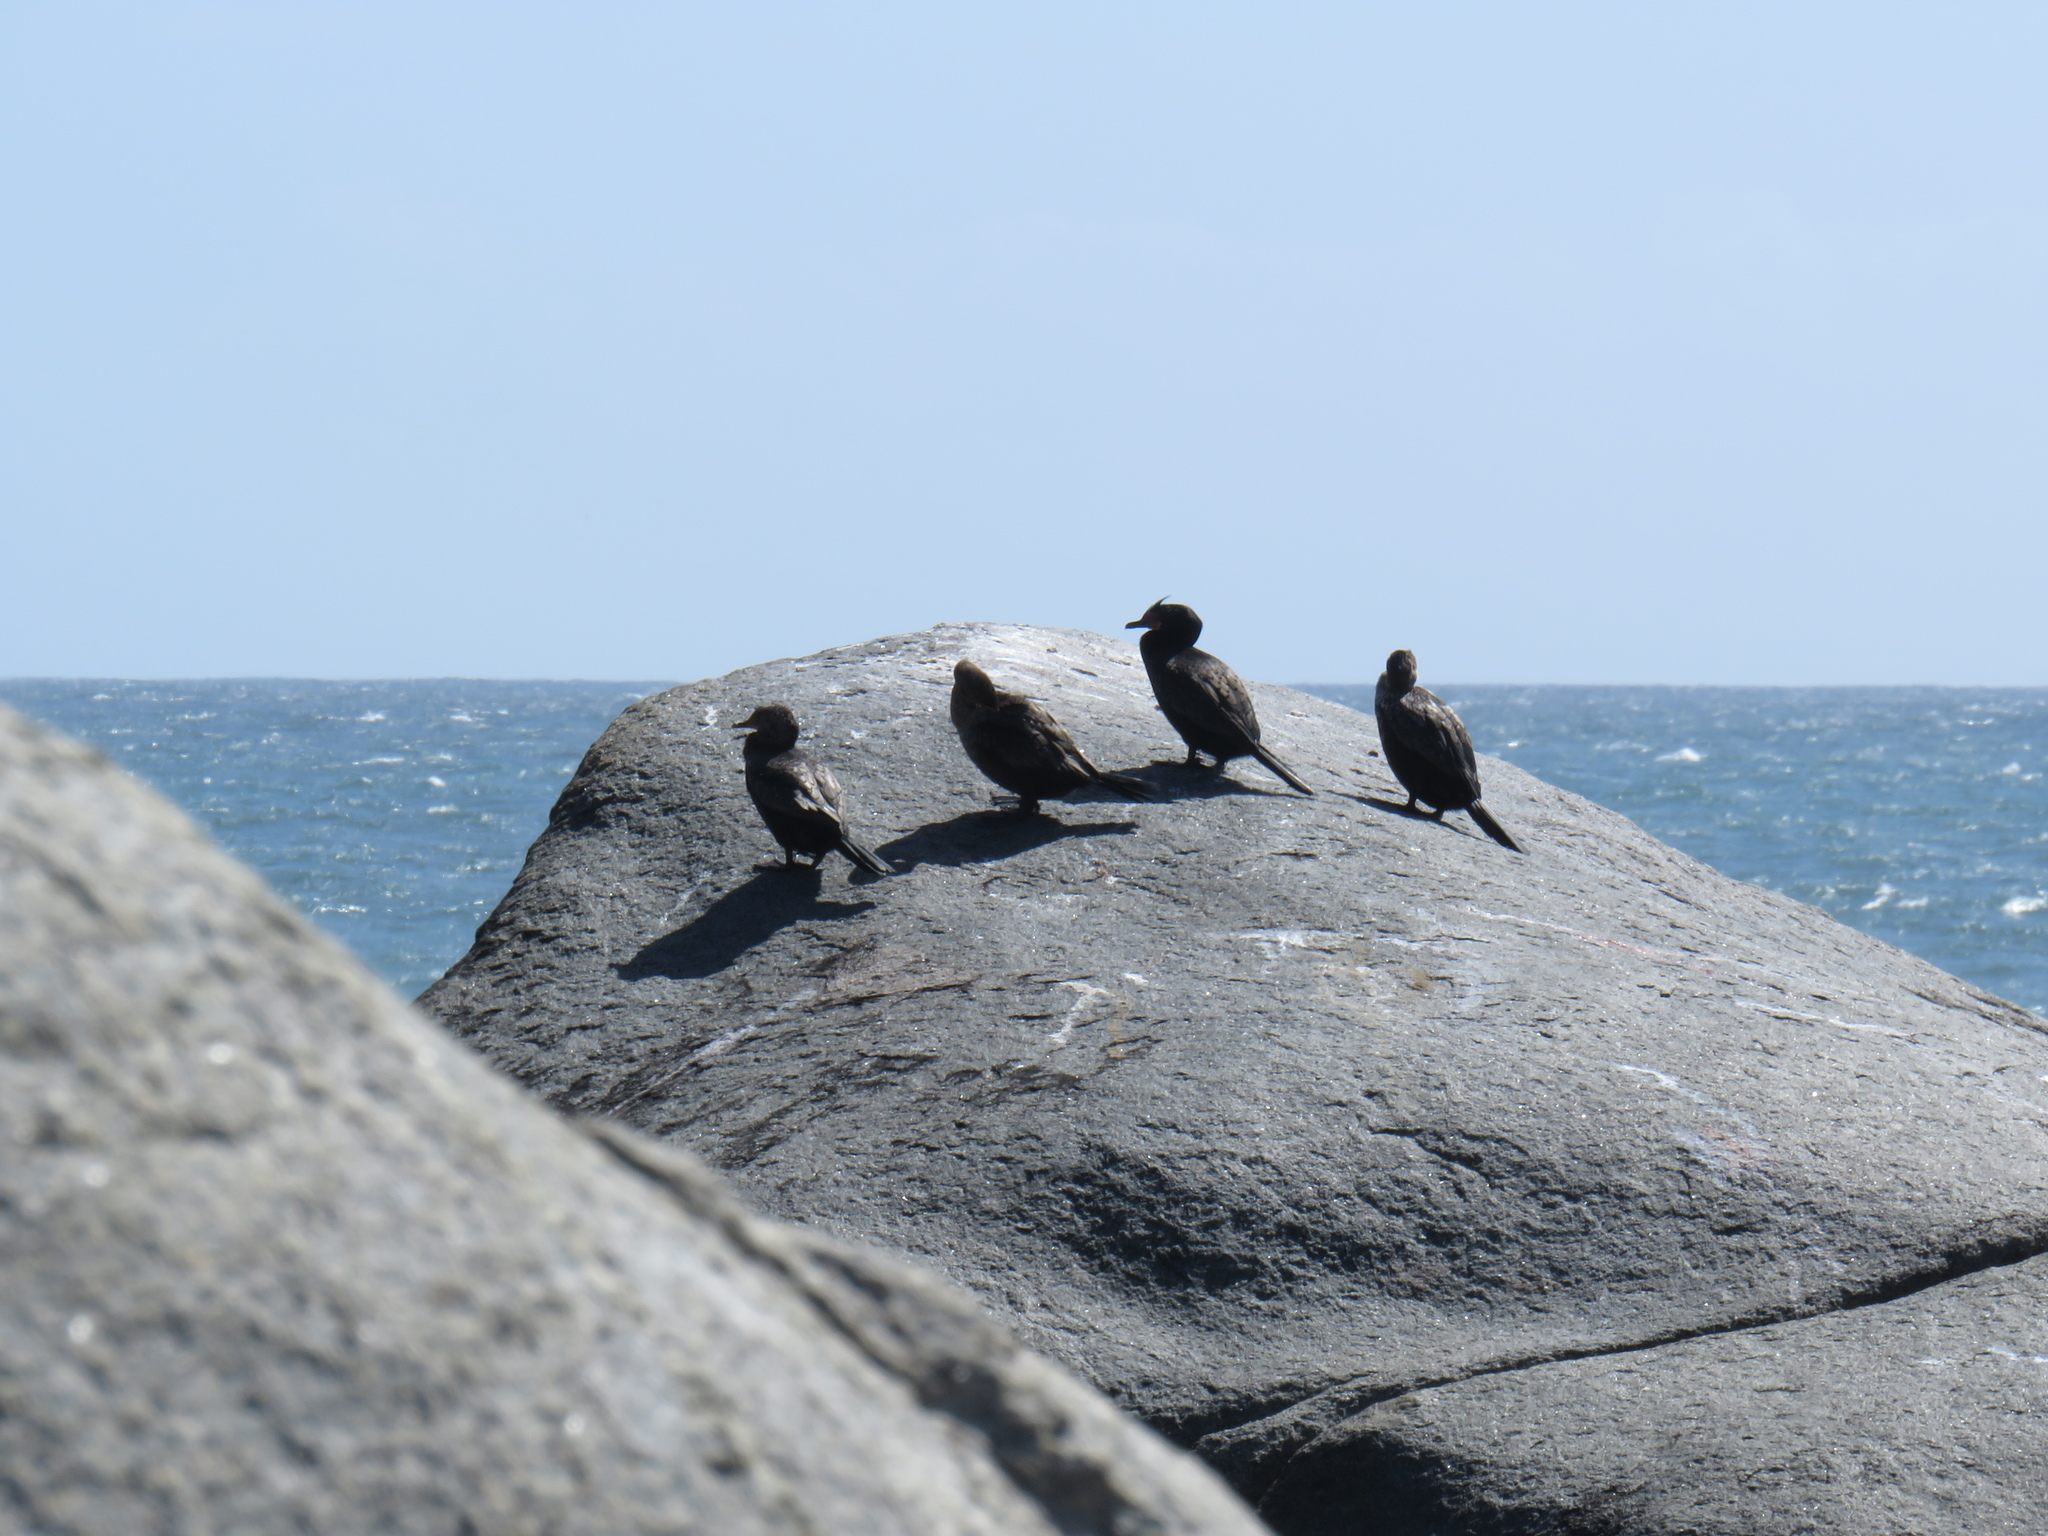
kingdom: Animalia
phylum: Chordata
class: Aves
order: Suliformes
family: Phalacrocoracidae
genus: Microcarbo
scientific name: Microcarbo coronatus
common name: Crowned cormorant
